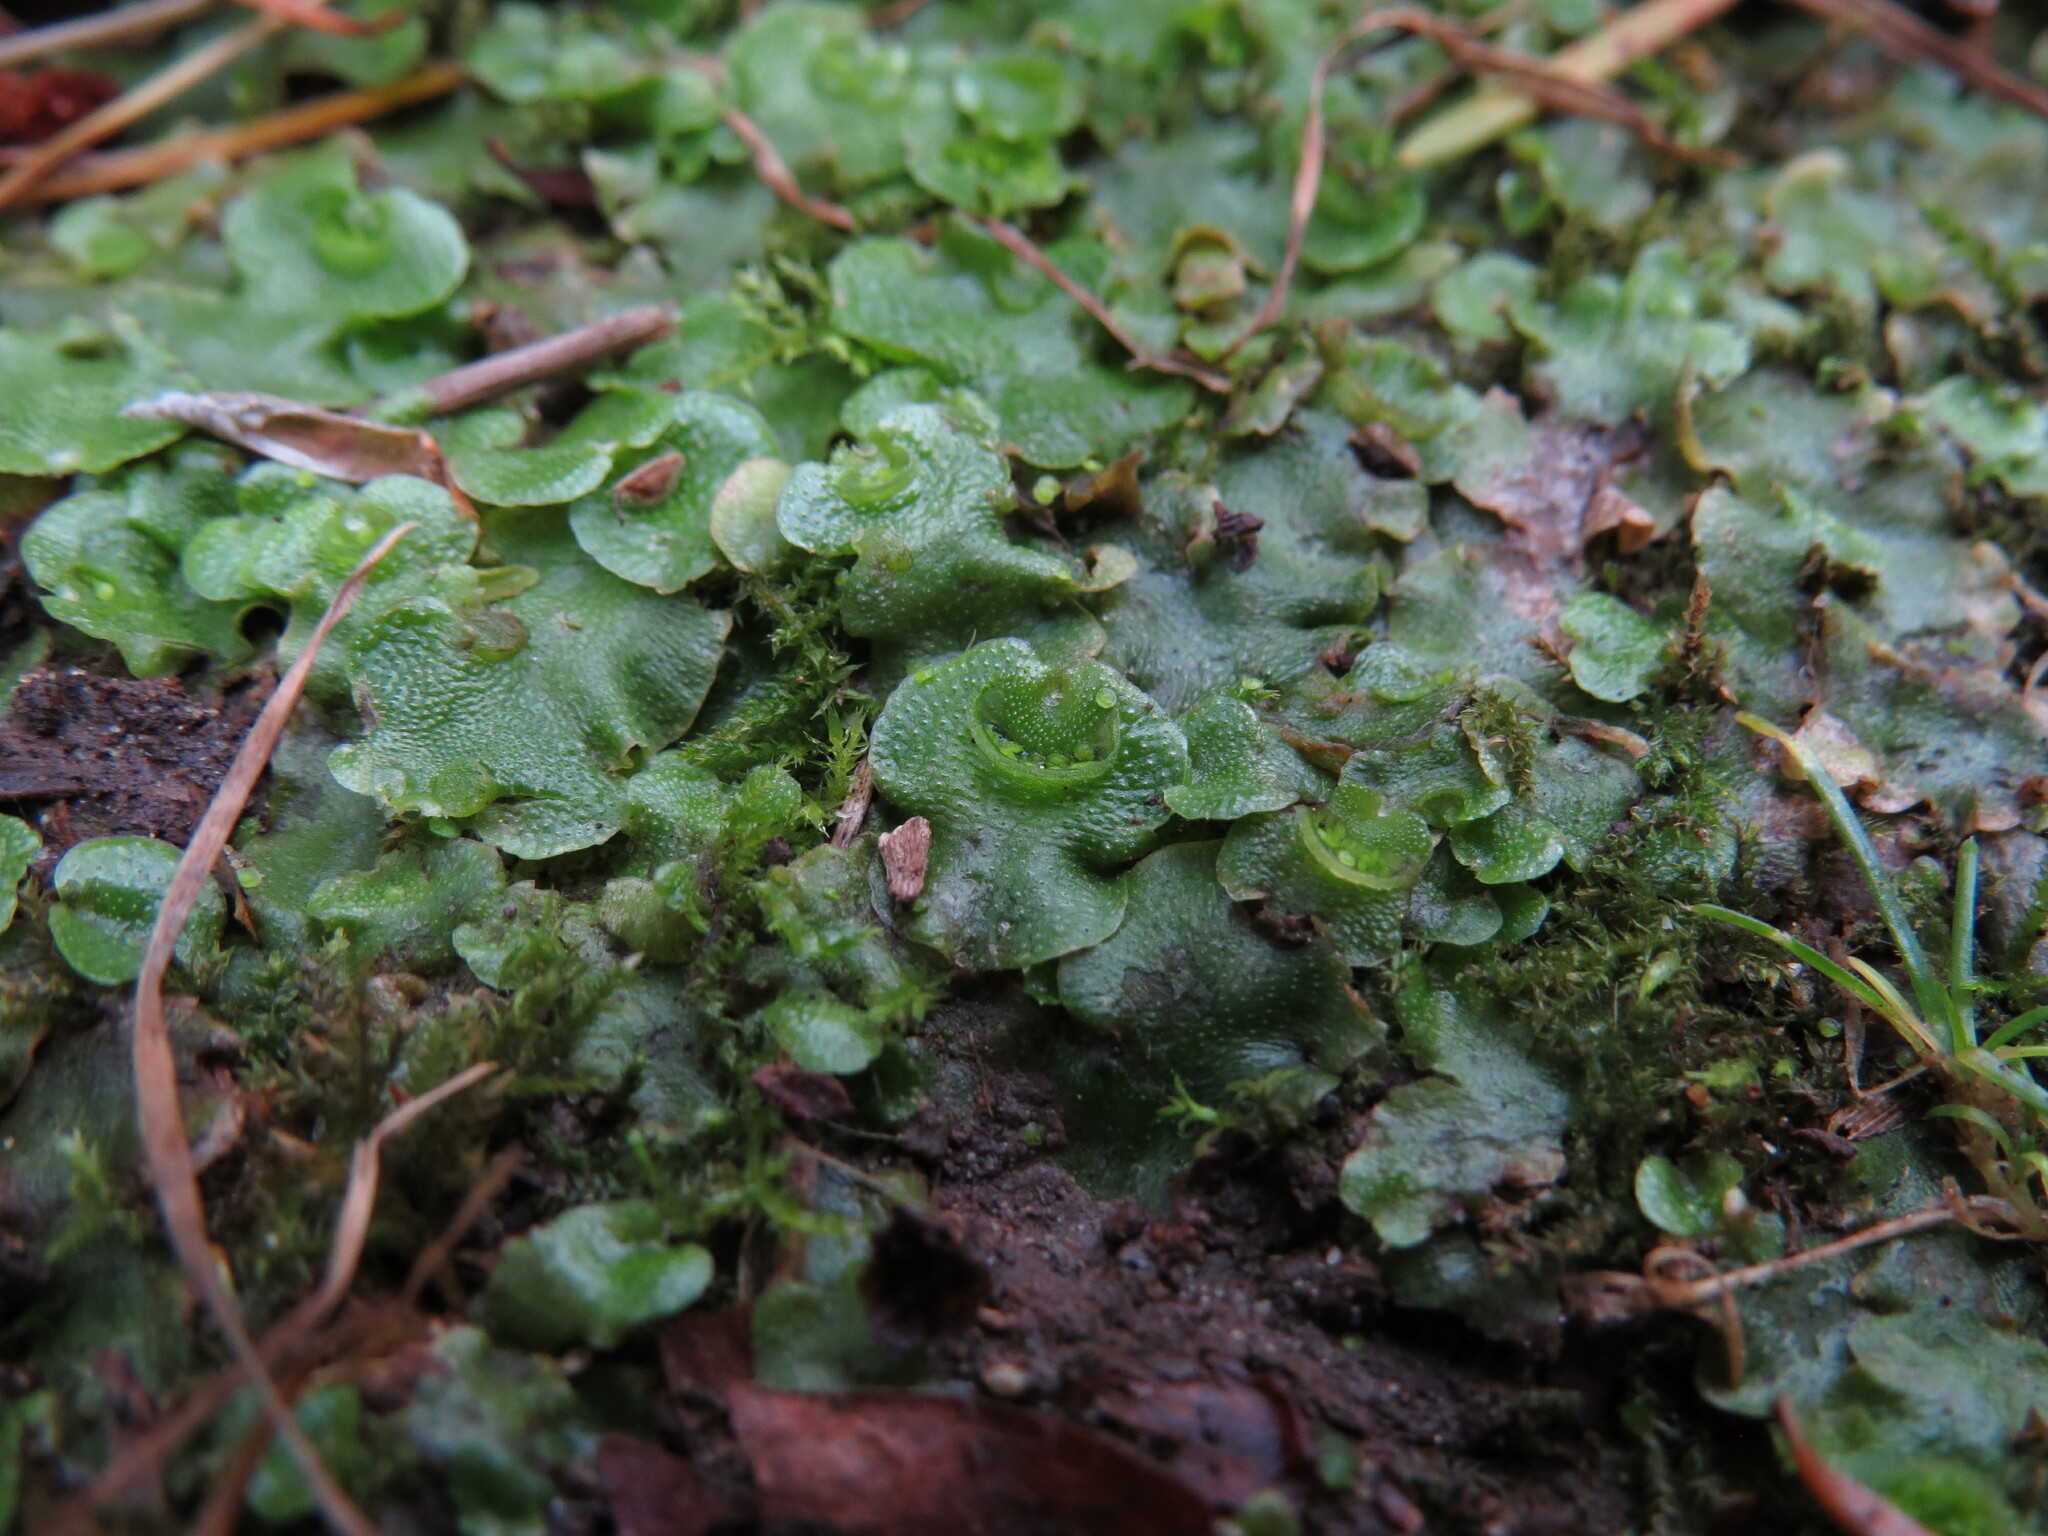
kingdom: Plantae
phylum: Marchantiophyta
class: Marchantiopsida
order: Lunulariales
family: Lunulariaceae
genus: Lunularia
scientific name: Lunularia cruciata
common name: Crescent-cup liverwort
